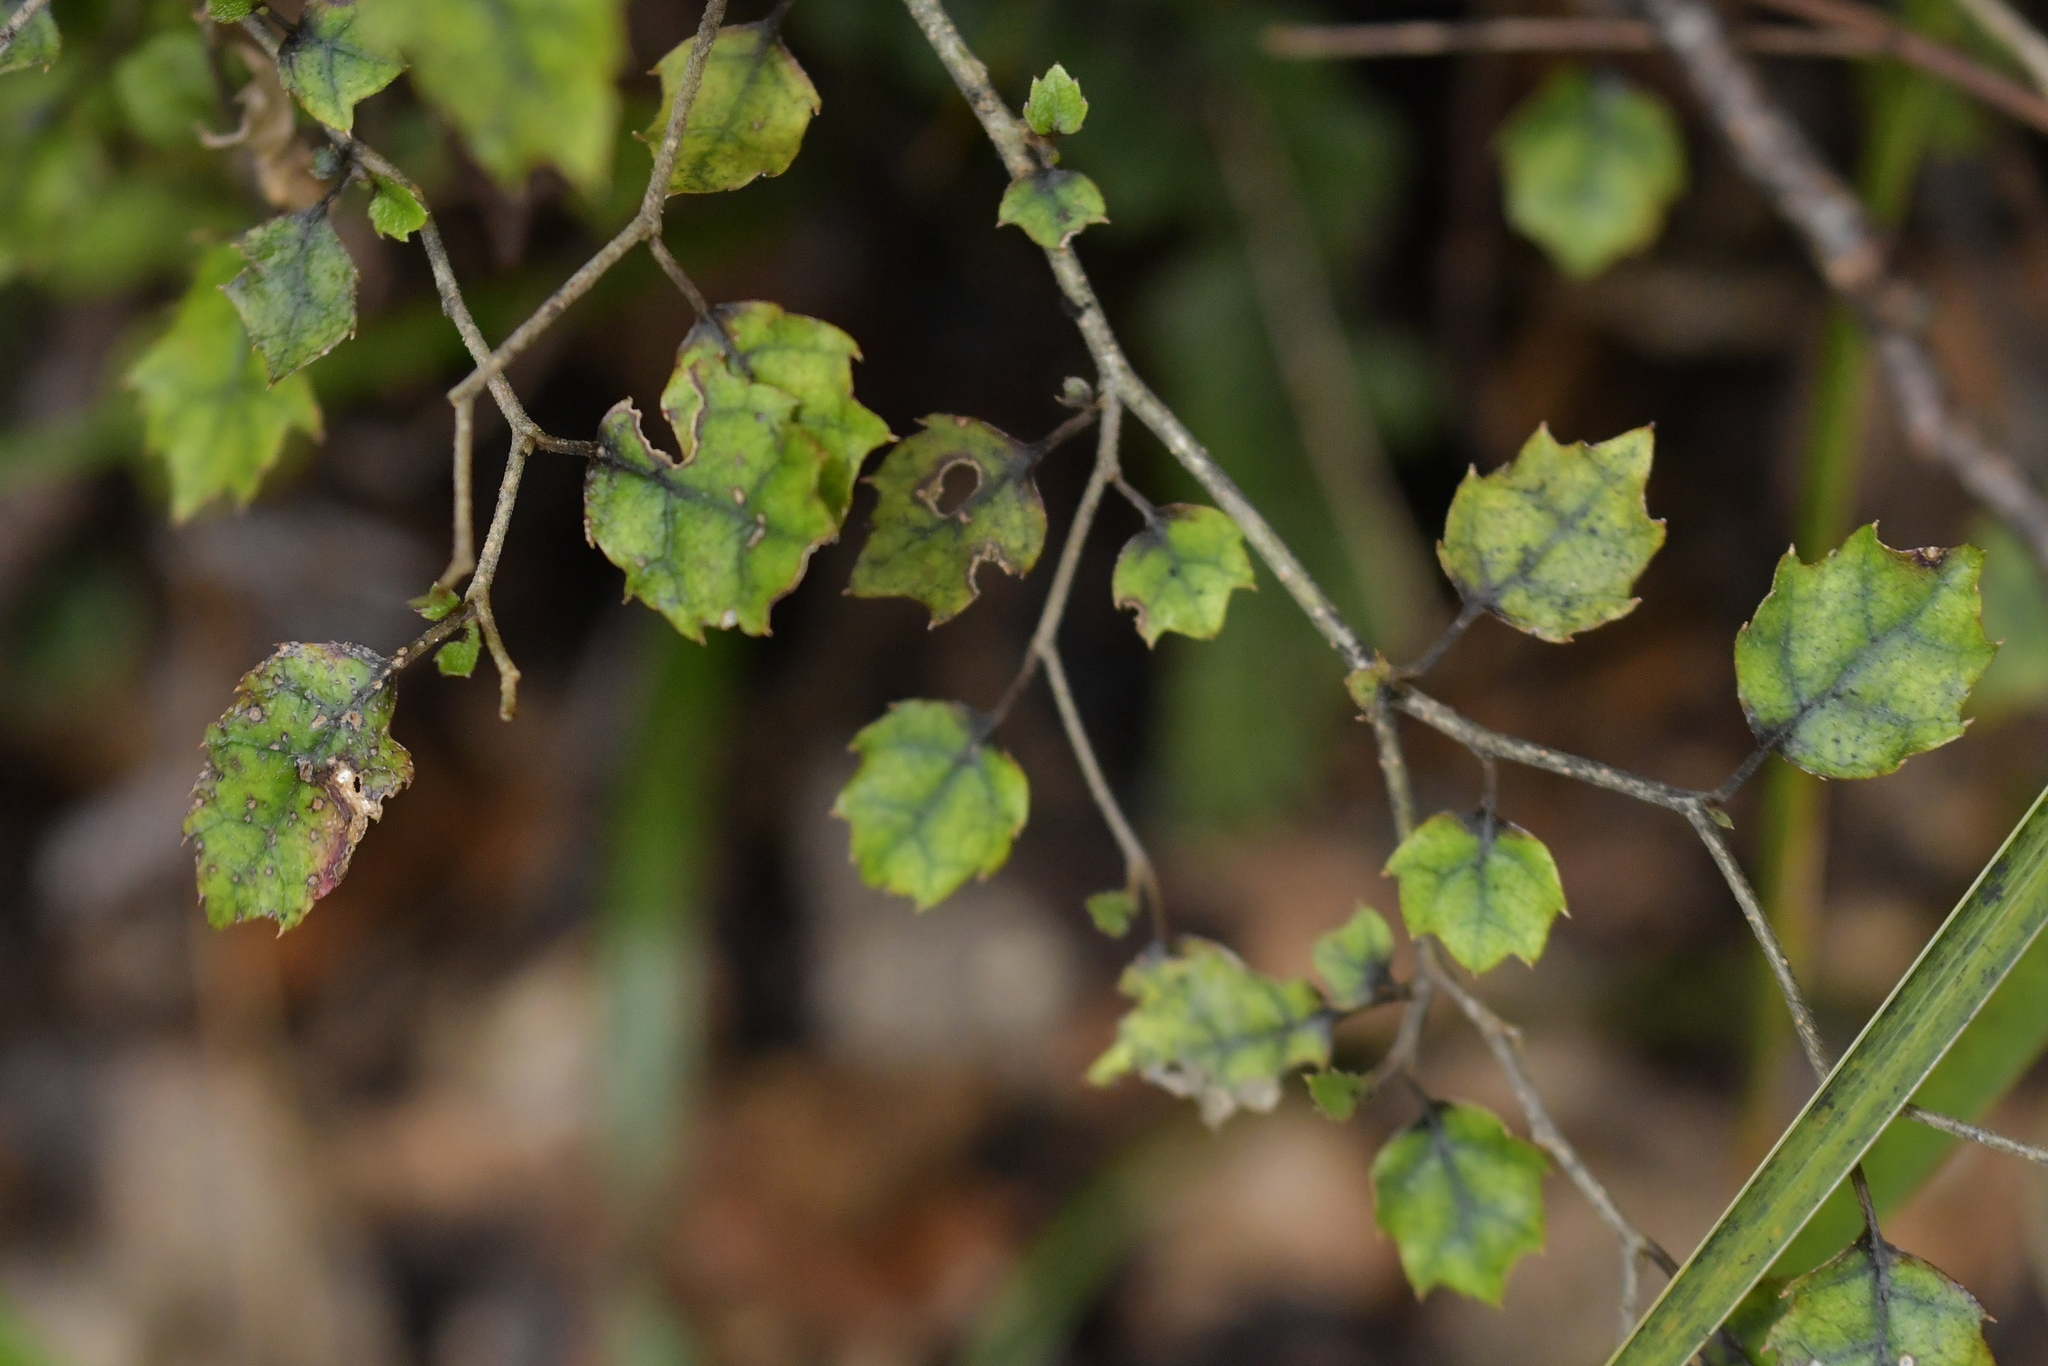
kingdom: Plantae
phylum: Tracheophyta
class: Magnoliopsida
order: Asterales
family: Rousseaceae
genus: Carpodetus
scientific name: Carpodetus serratus
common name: White mapau
